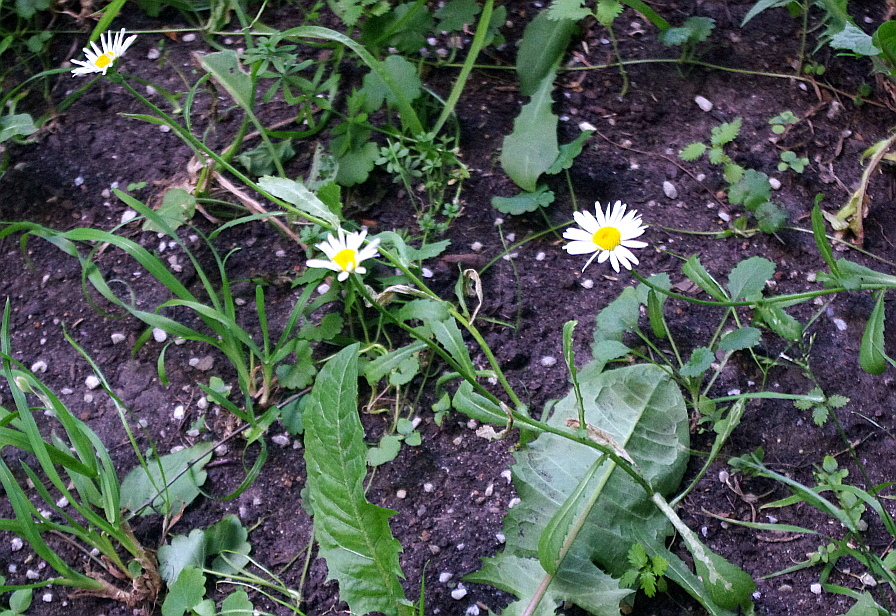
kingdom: Plantae
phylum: Tracheophyta
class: Magnoliopsida
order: Asterales
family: Asteraceae
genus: Leucanthemum
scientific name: Leucanthemum vulgare
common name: Oxeye daisy
